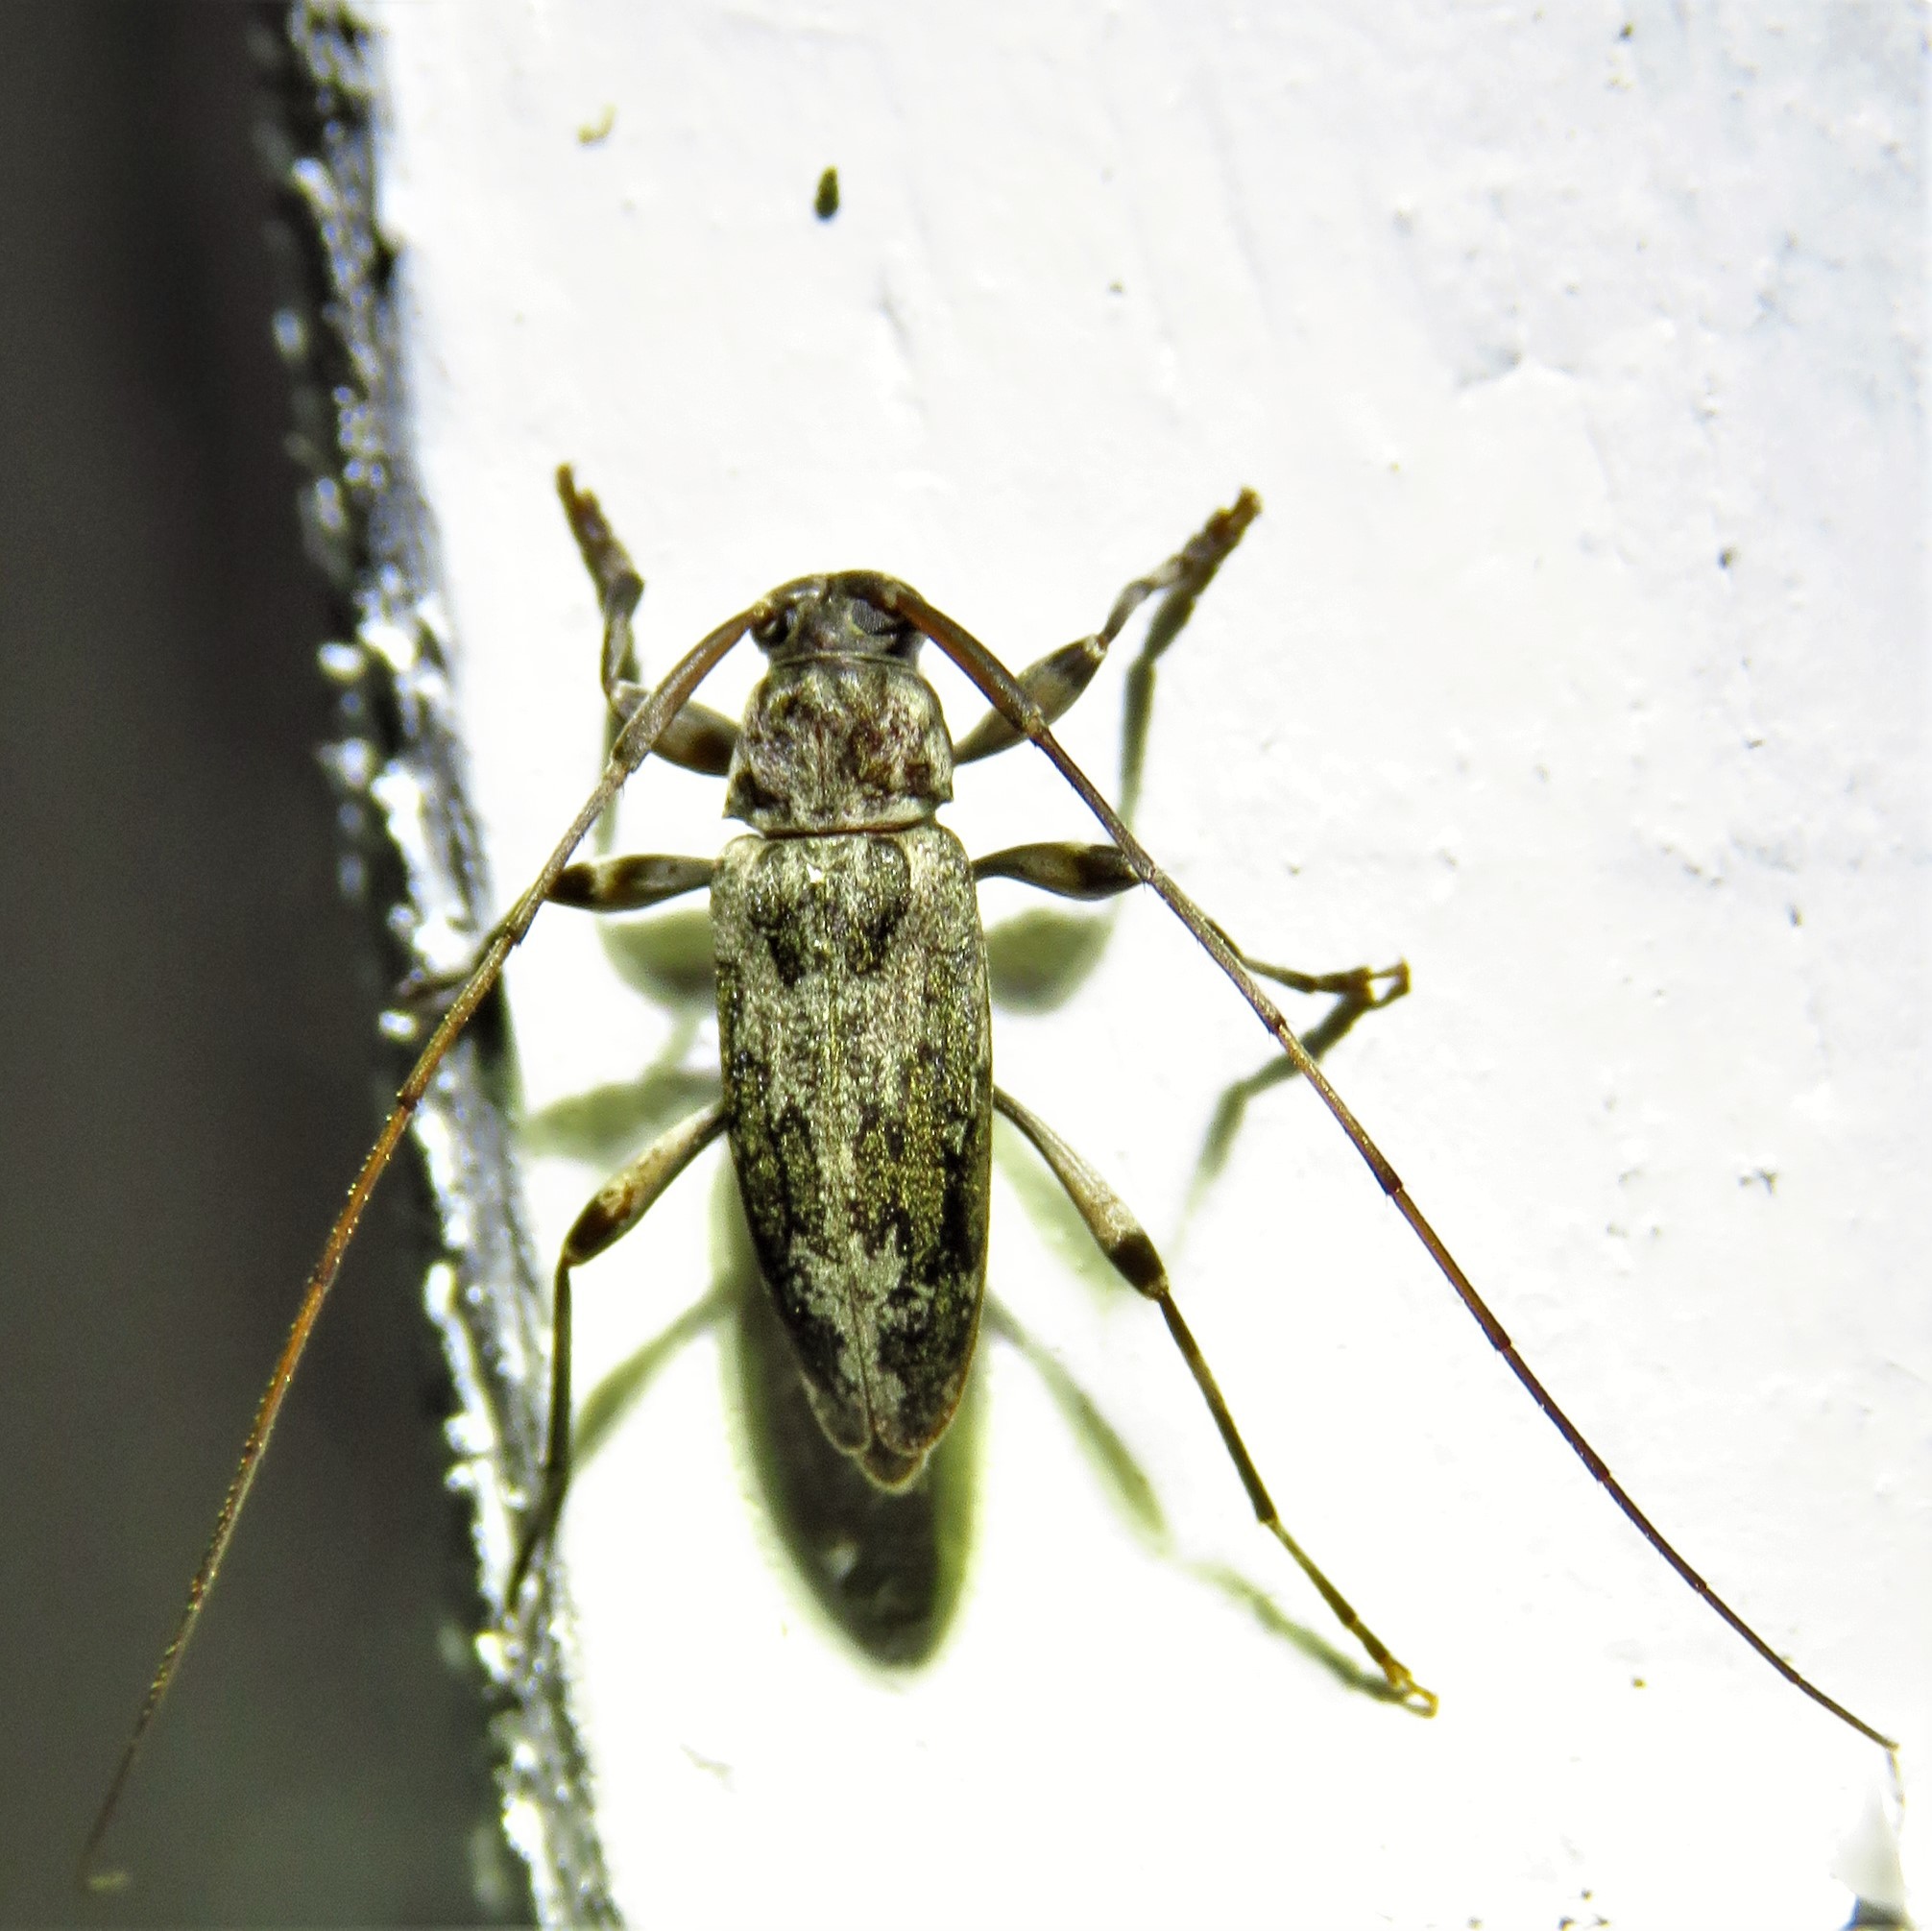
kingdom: Animalia
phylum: Arthropoda
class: Insecta
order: Coleoptera
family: Cerambycidae
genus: Lepturges
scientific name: Lepturges confluens
